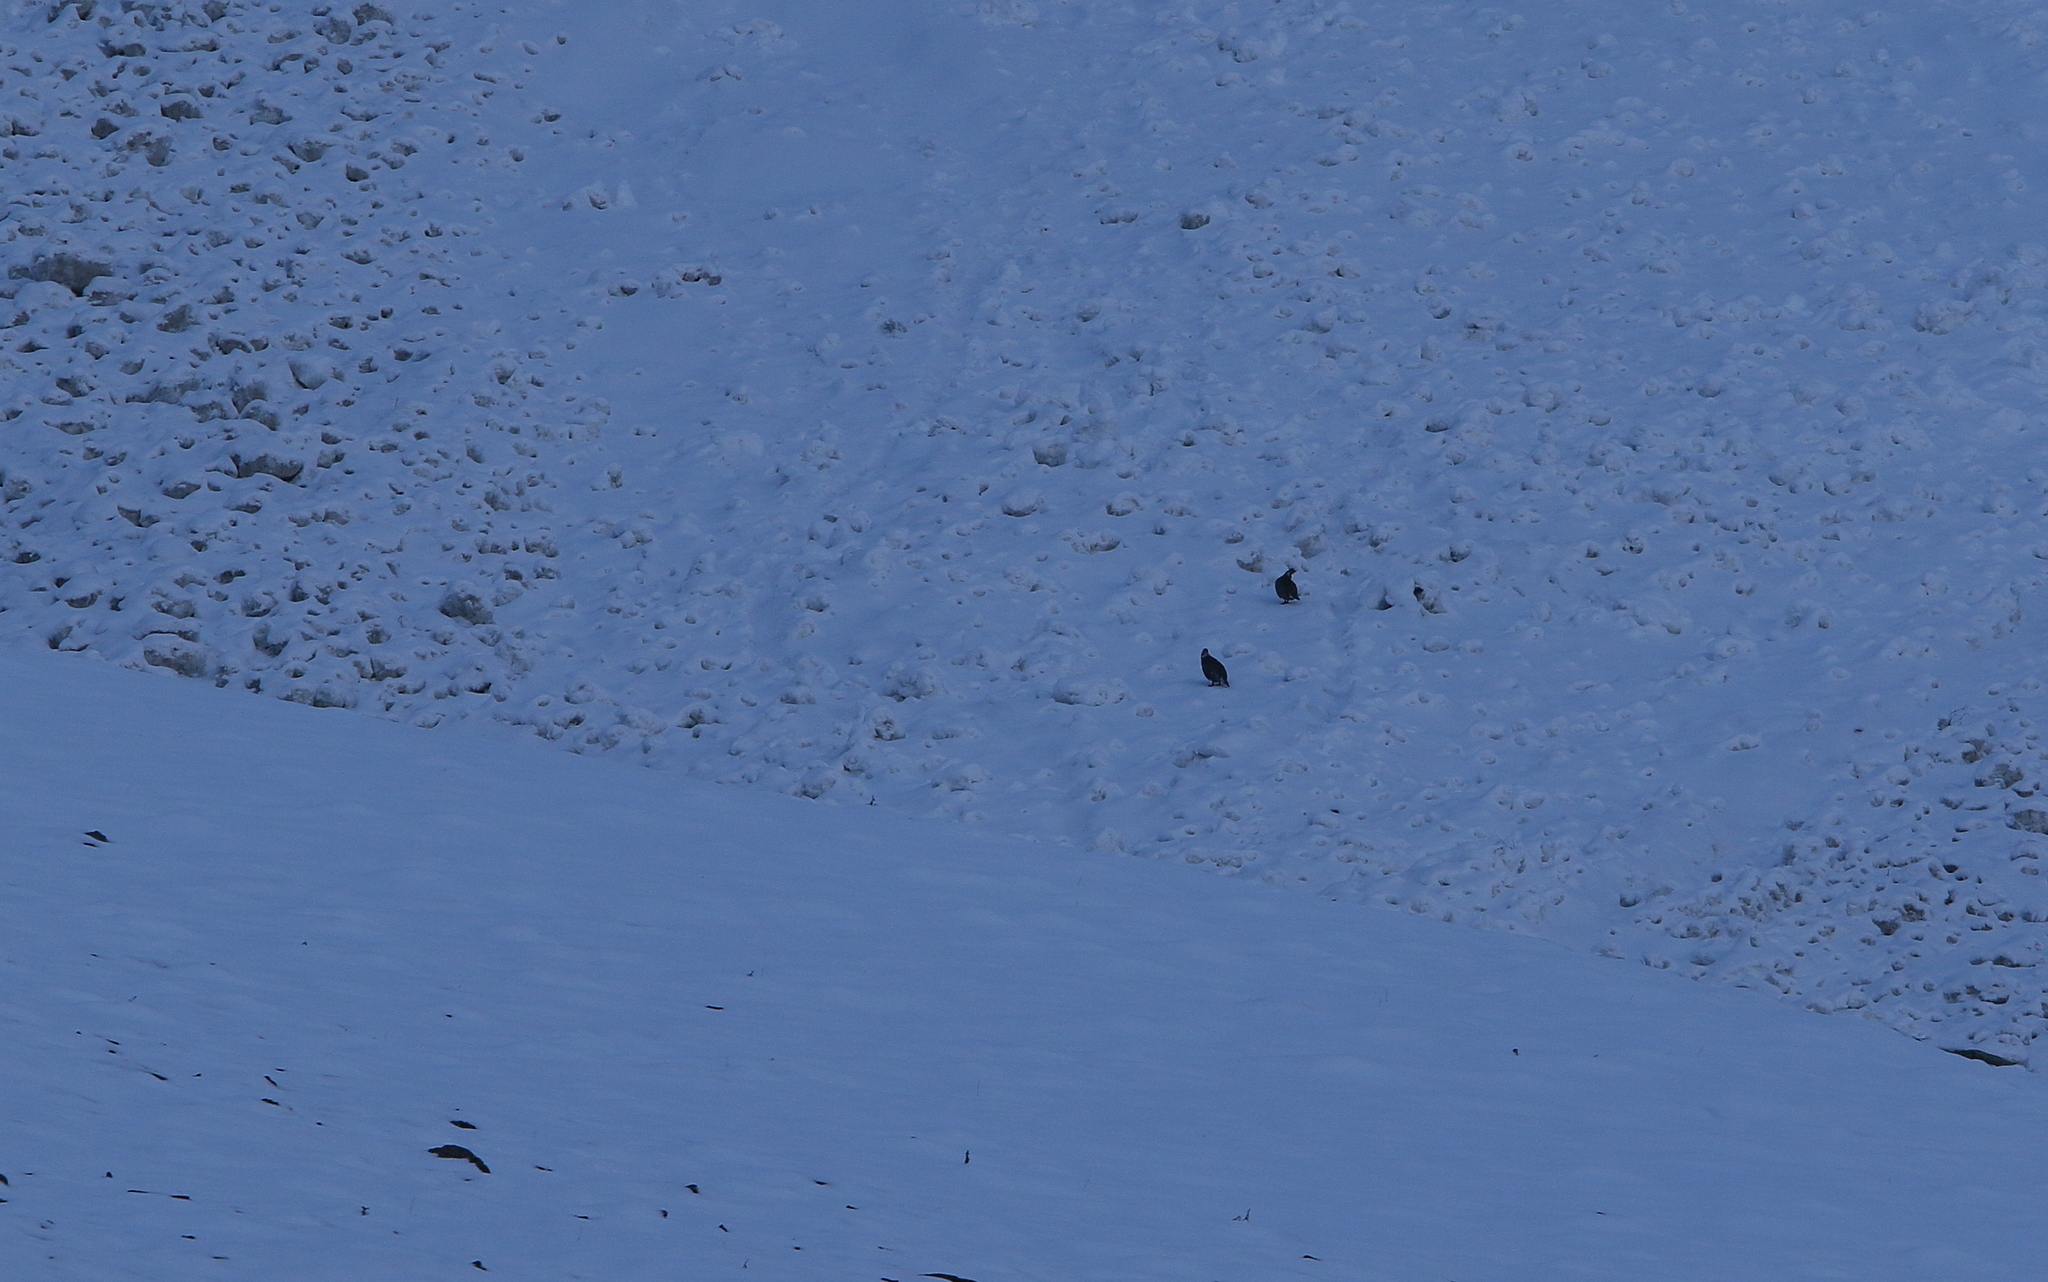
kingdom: Animalia
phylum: Chordata
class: Aves
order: Galliformes
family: Phasianidae
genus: Tetraogallus
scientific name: Tetraogallus caucasicus
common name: Caucasian snowcock
